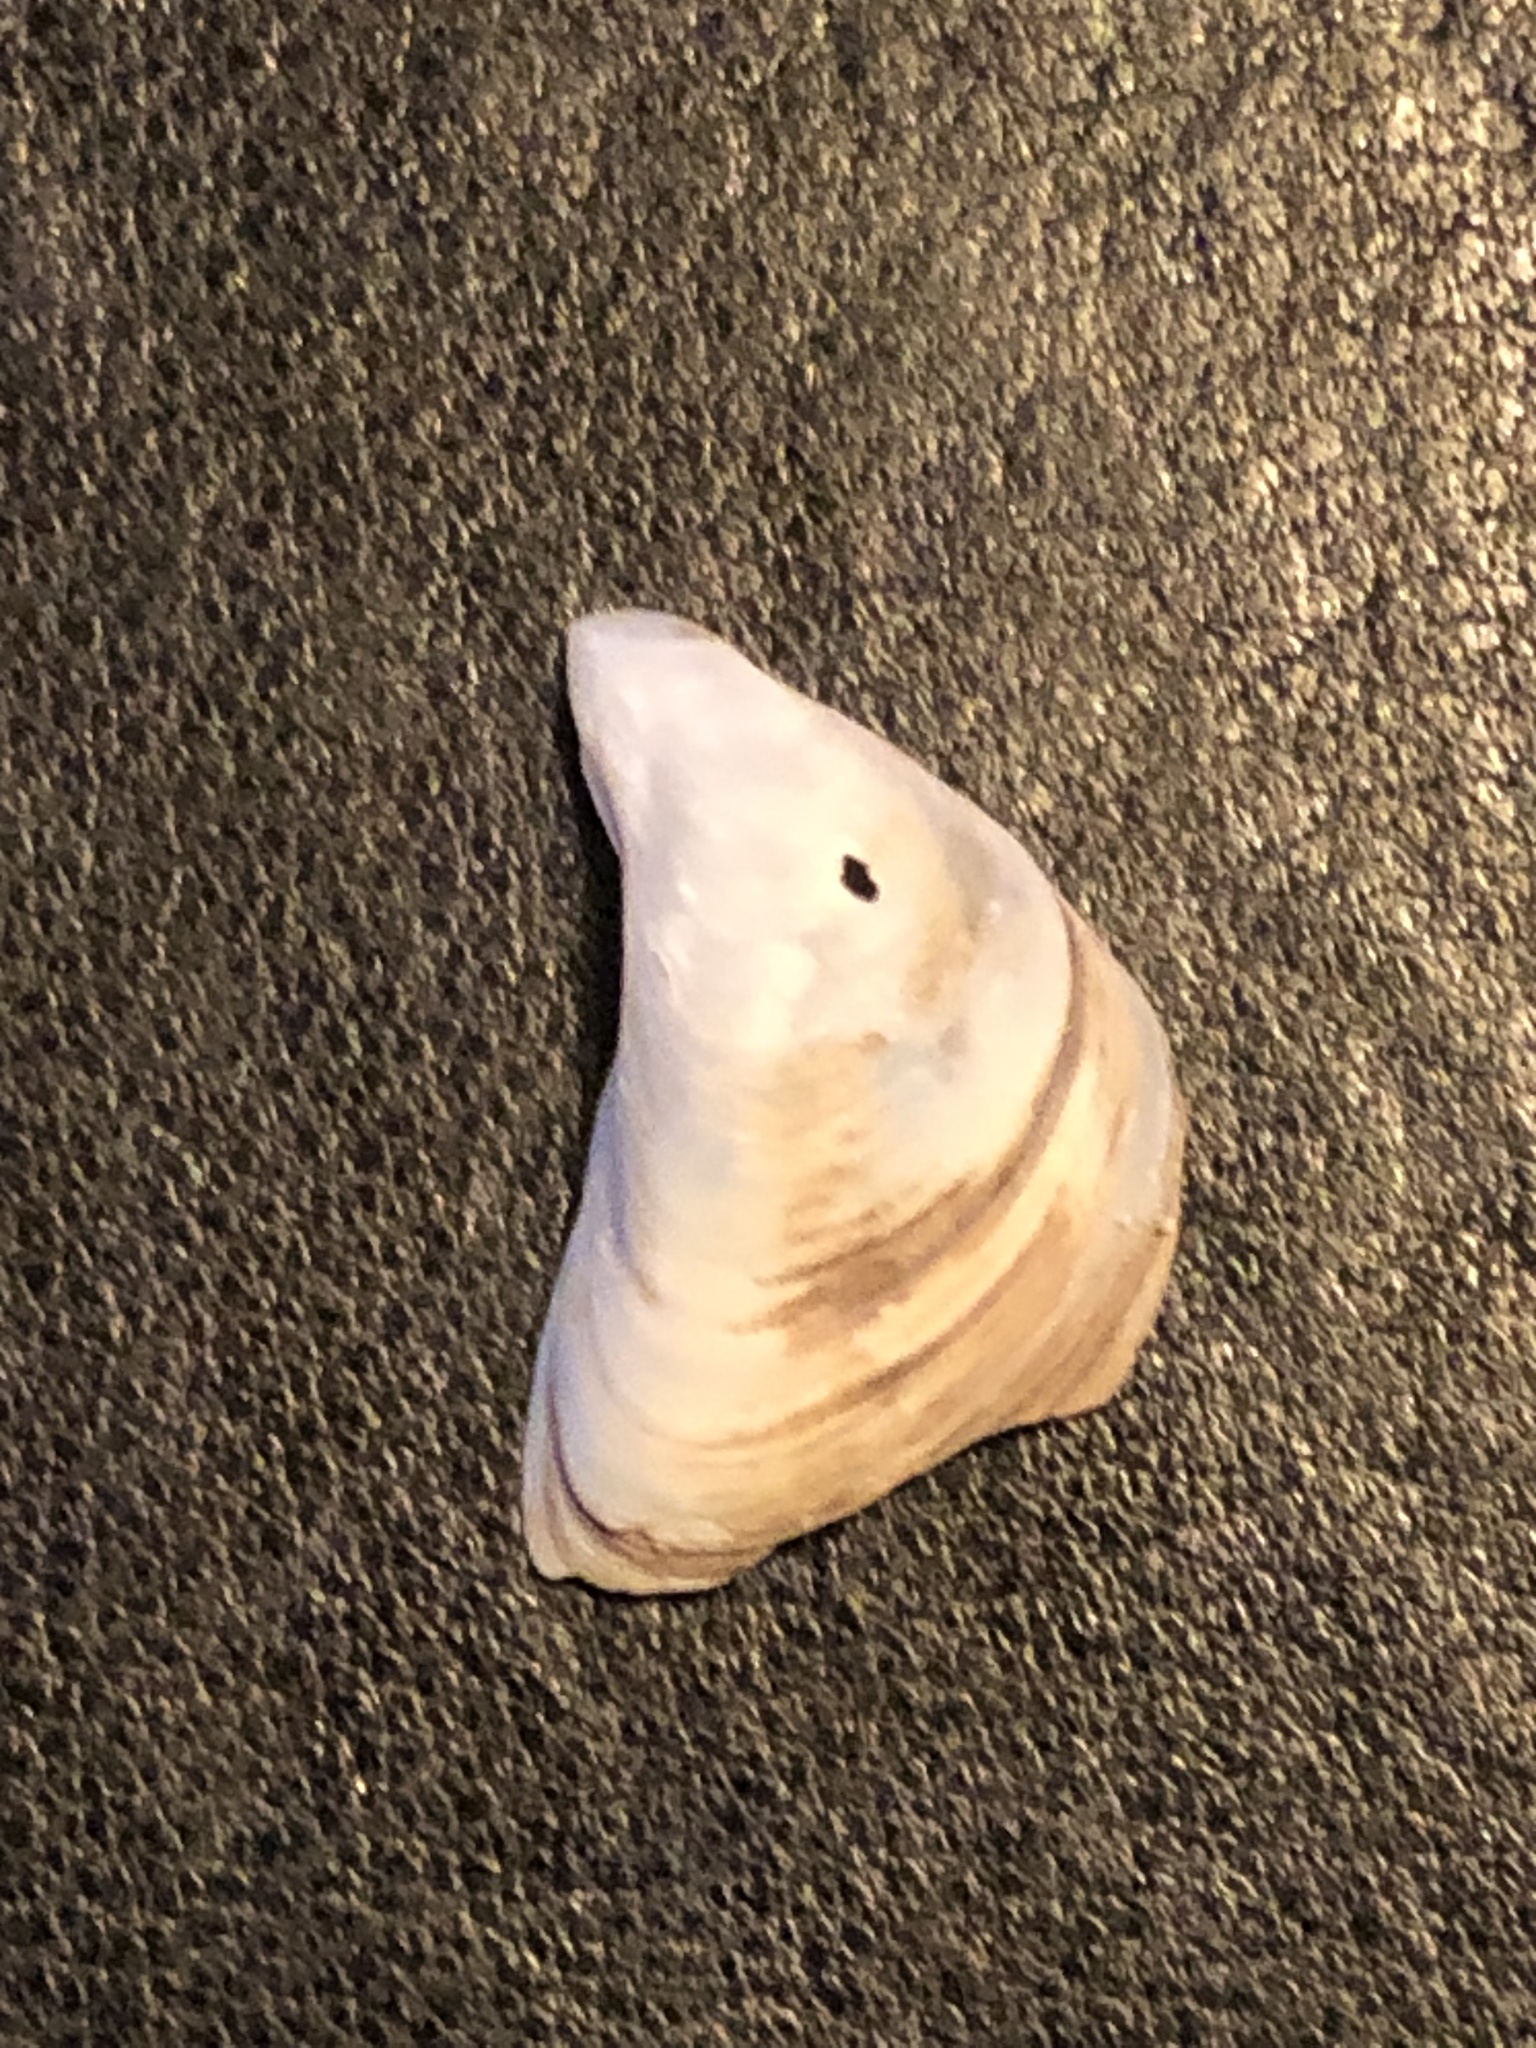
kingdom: Animalia
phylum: Mollusca
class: Bivalvia
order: Myida
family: Dreissenidae
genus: Dreissena
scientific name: Dreissena bugensis
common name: Quagga mussel
